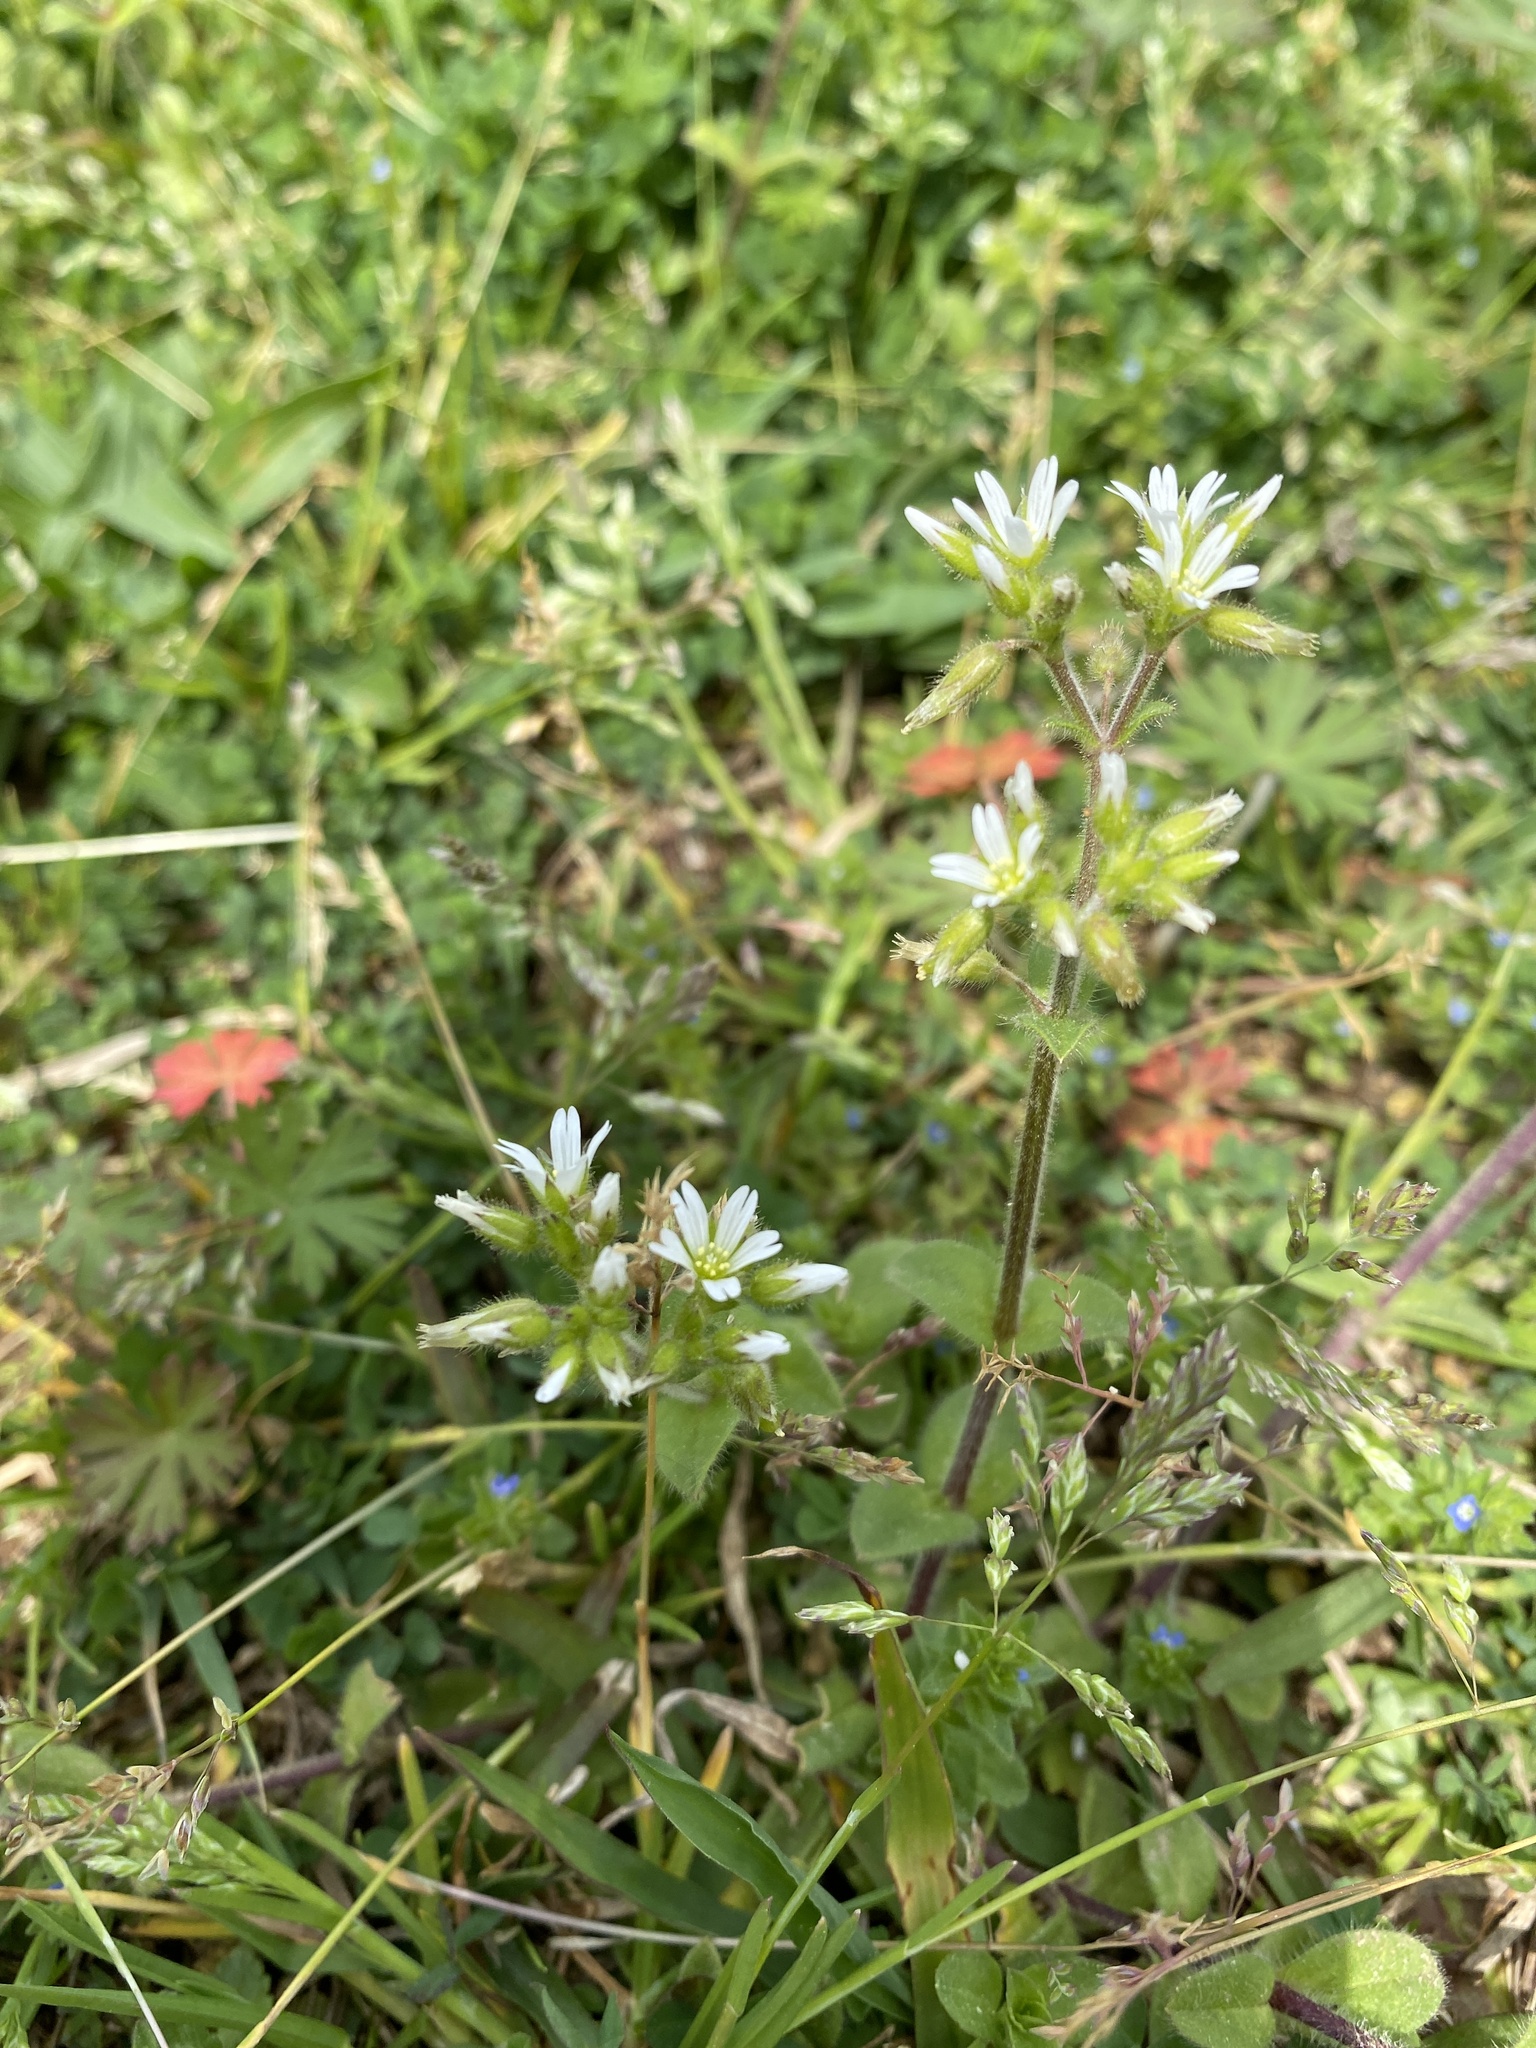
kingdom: Plantae
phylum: Tracheophyta
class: Magnoliopsida
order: Caryophyllales
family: Caryophyllaceae
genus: Cerastium
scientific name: Cerastium glomeratum
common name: Sticky chickweed
